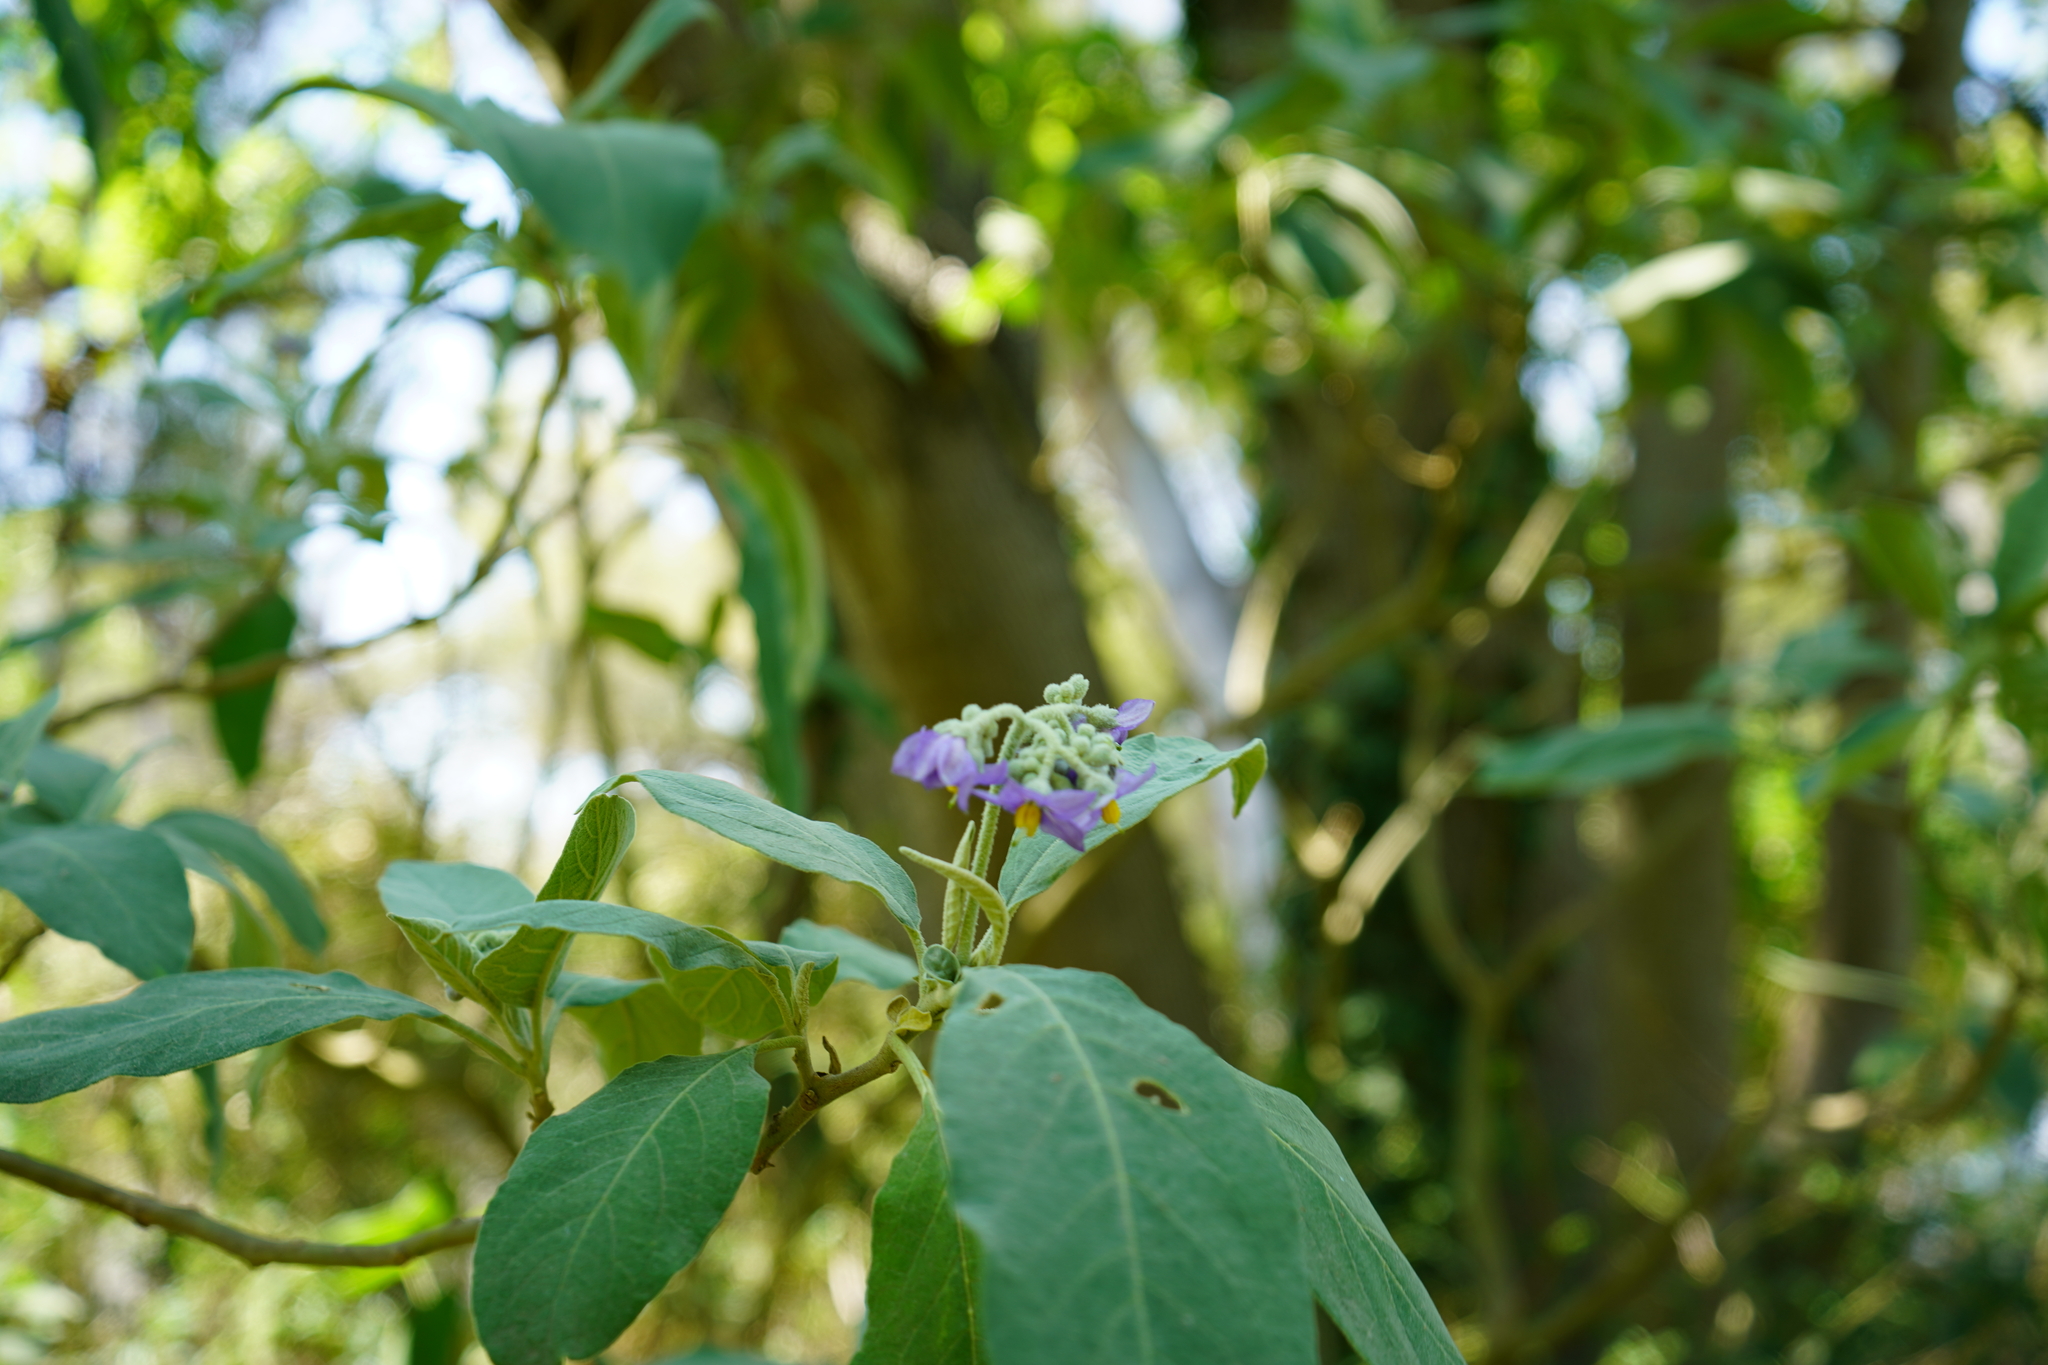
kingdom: Plantae
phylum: Tracheophyta
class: Magnoliopsida
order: Solanales
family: Solanaceae
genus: Solanum
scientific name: Solanum granulosoleprosum
